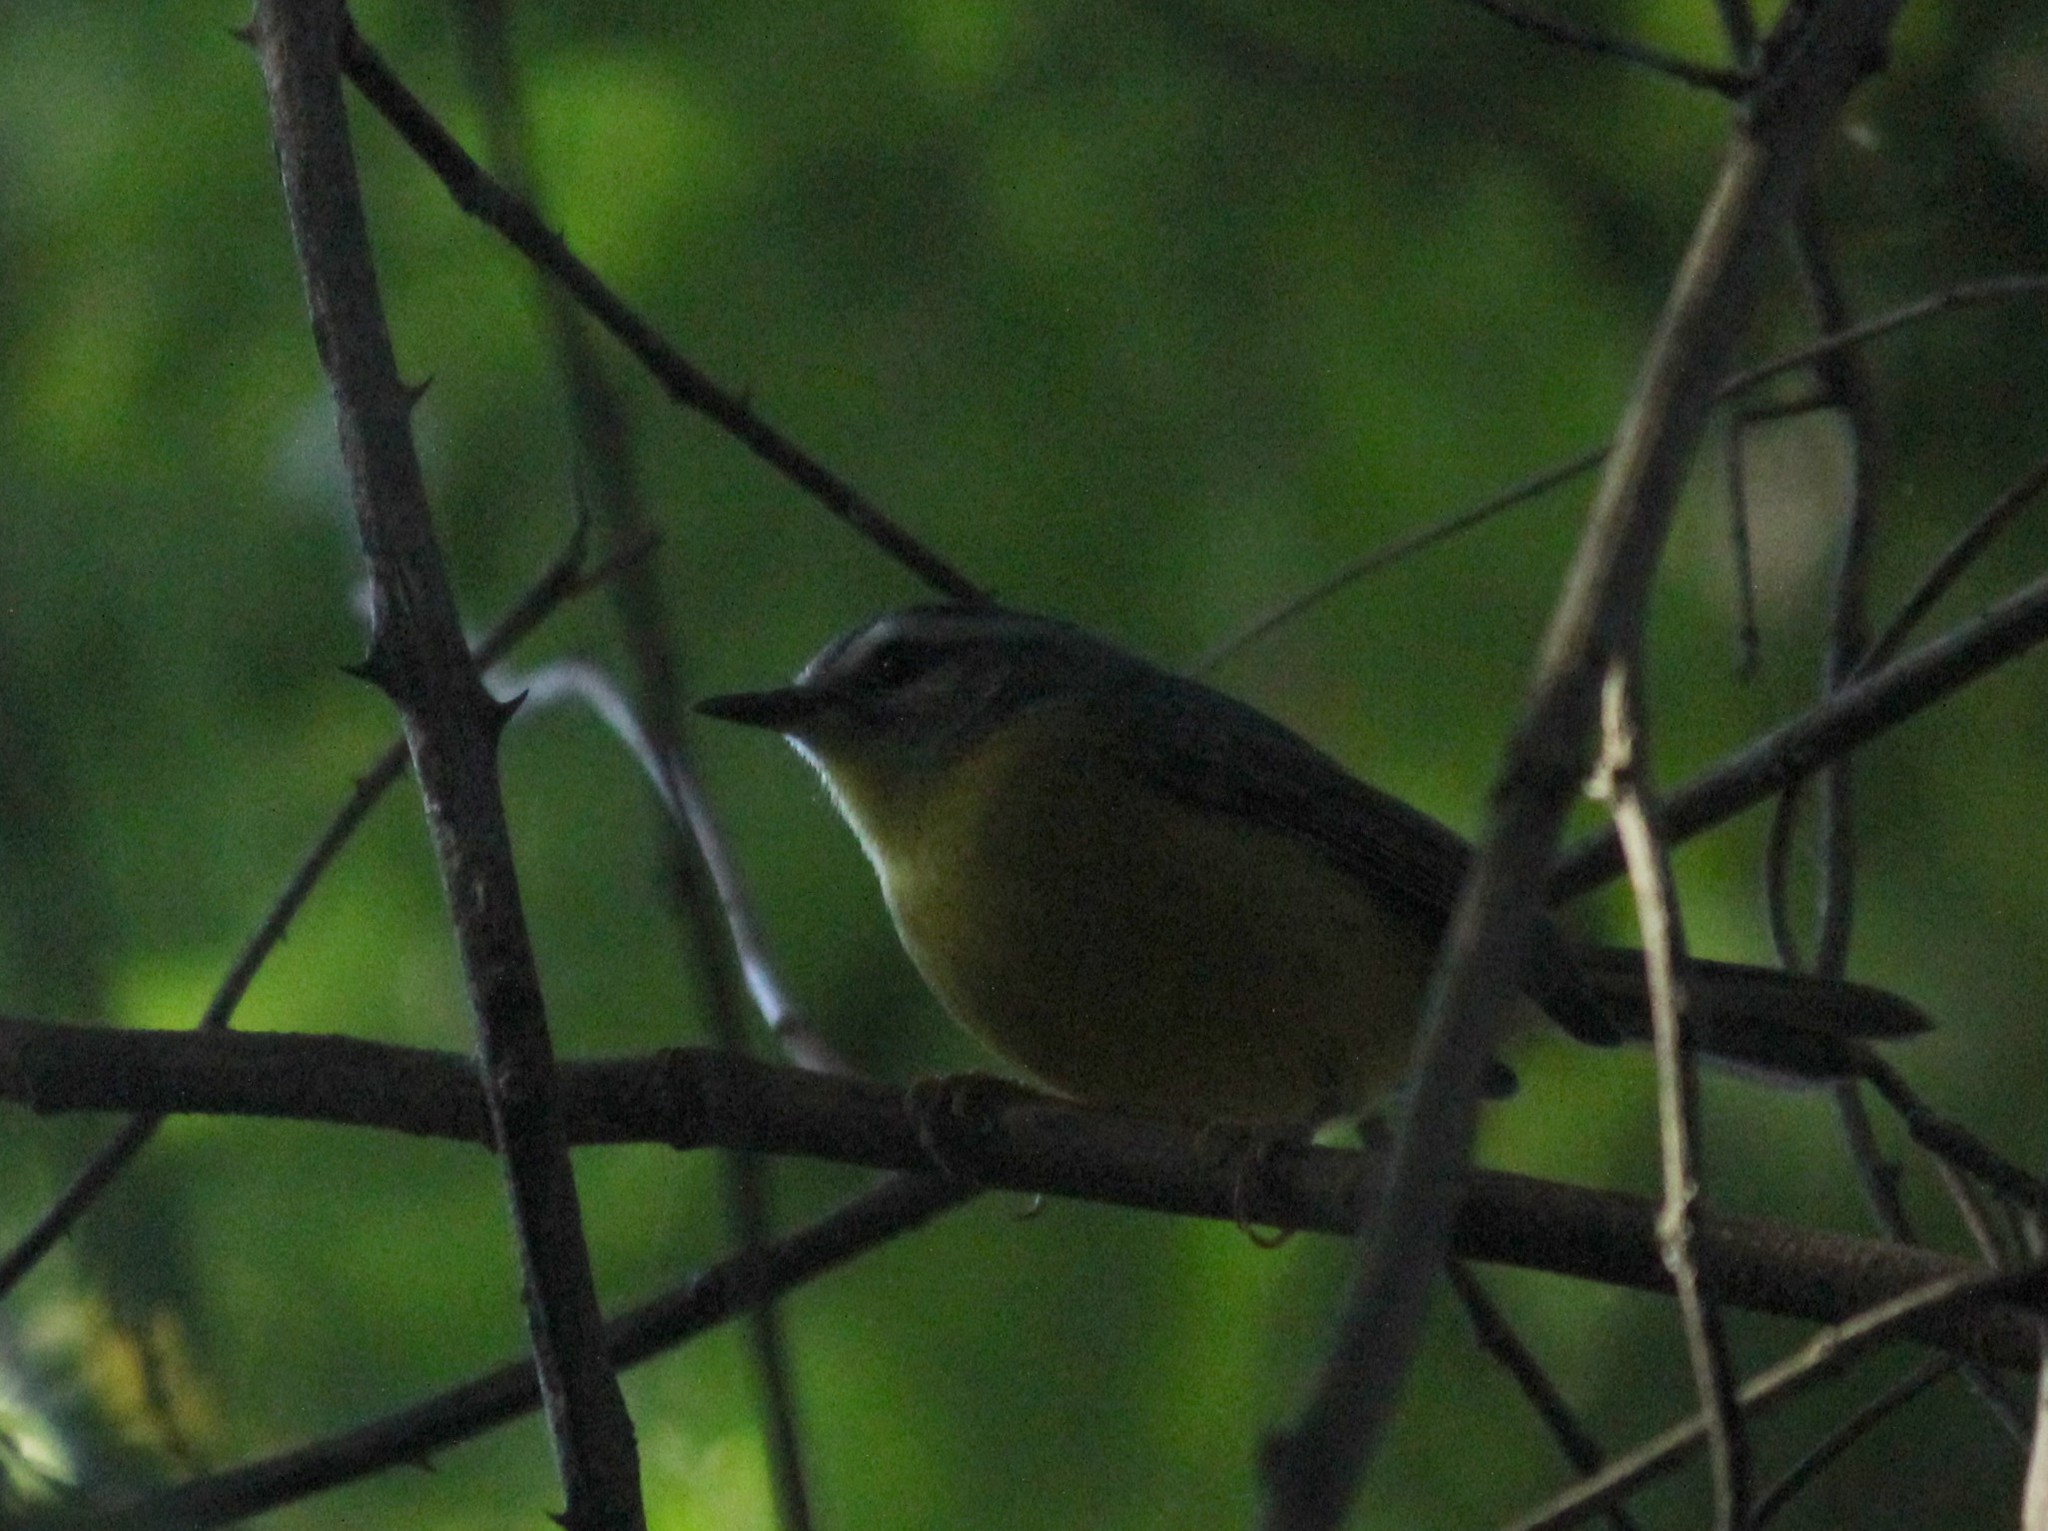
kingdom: Animalia
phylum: Chordata
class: Aves
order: Passeriformes
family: Parulidae
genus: Basileuterus
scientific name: Basileuterus culicivorus
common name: Golden-crowned warbler
